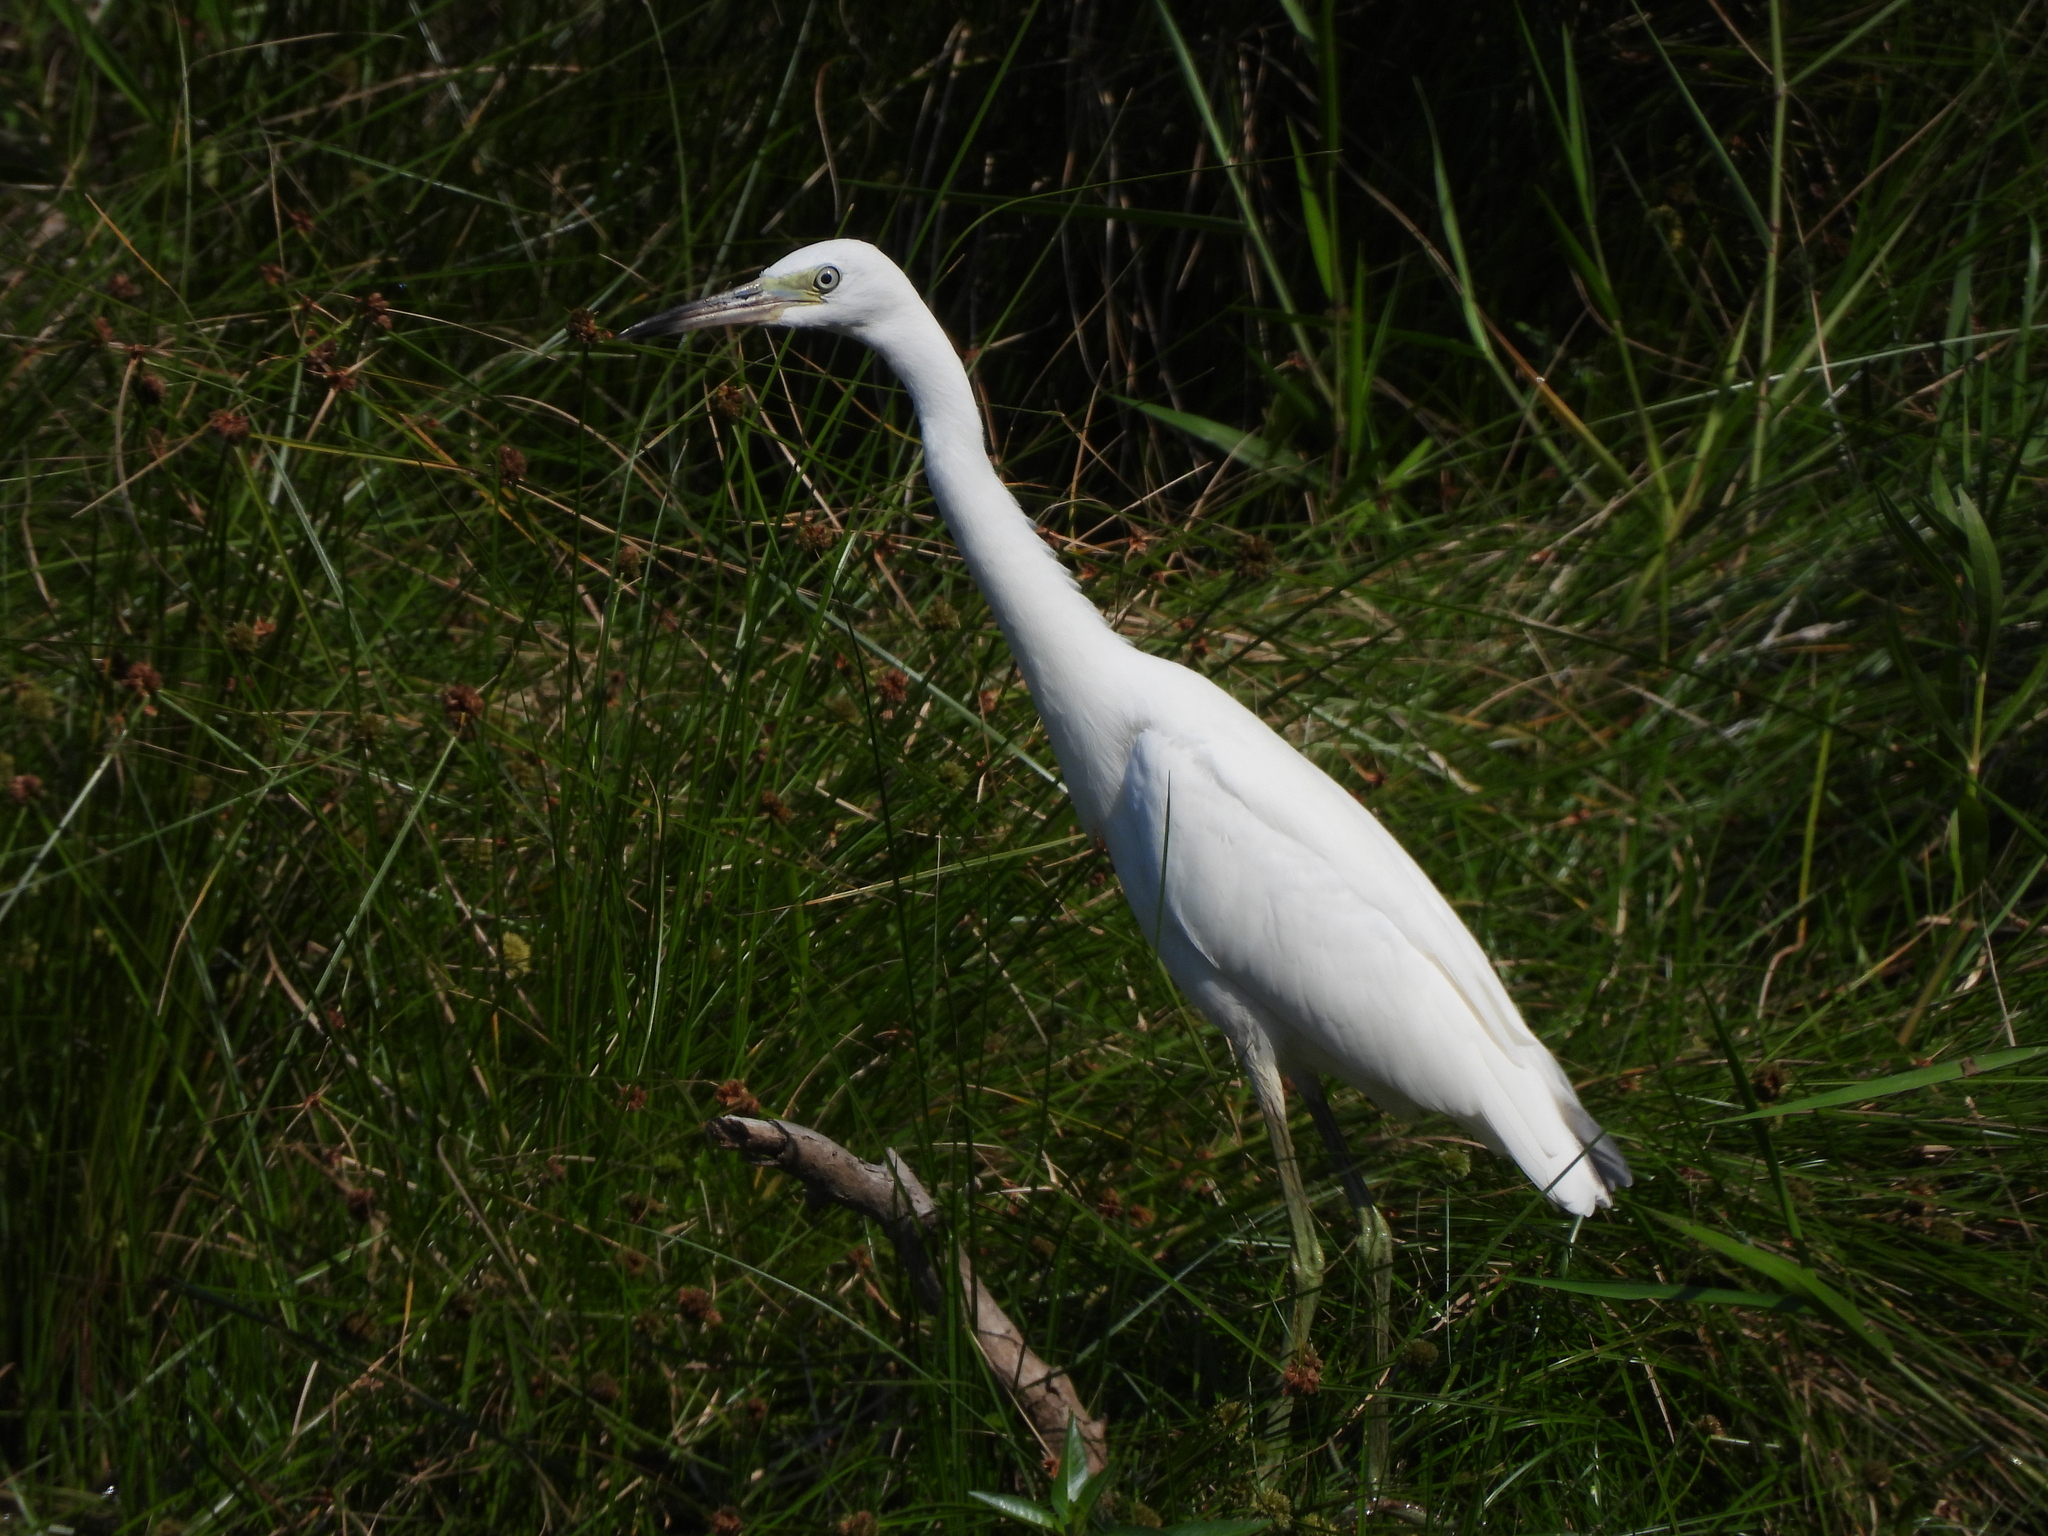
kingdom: Animalia
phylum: Chordata
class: Aves
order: Pelecaniformes
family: Ardeidae
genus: Egretta
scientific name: Egretta caerulea
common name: Little blue heron
